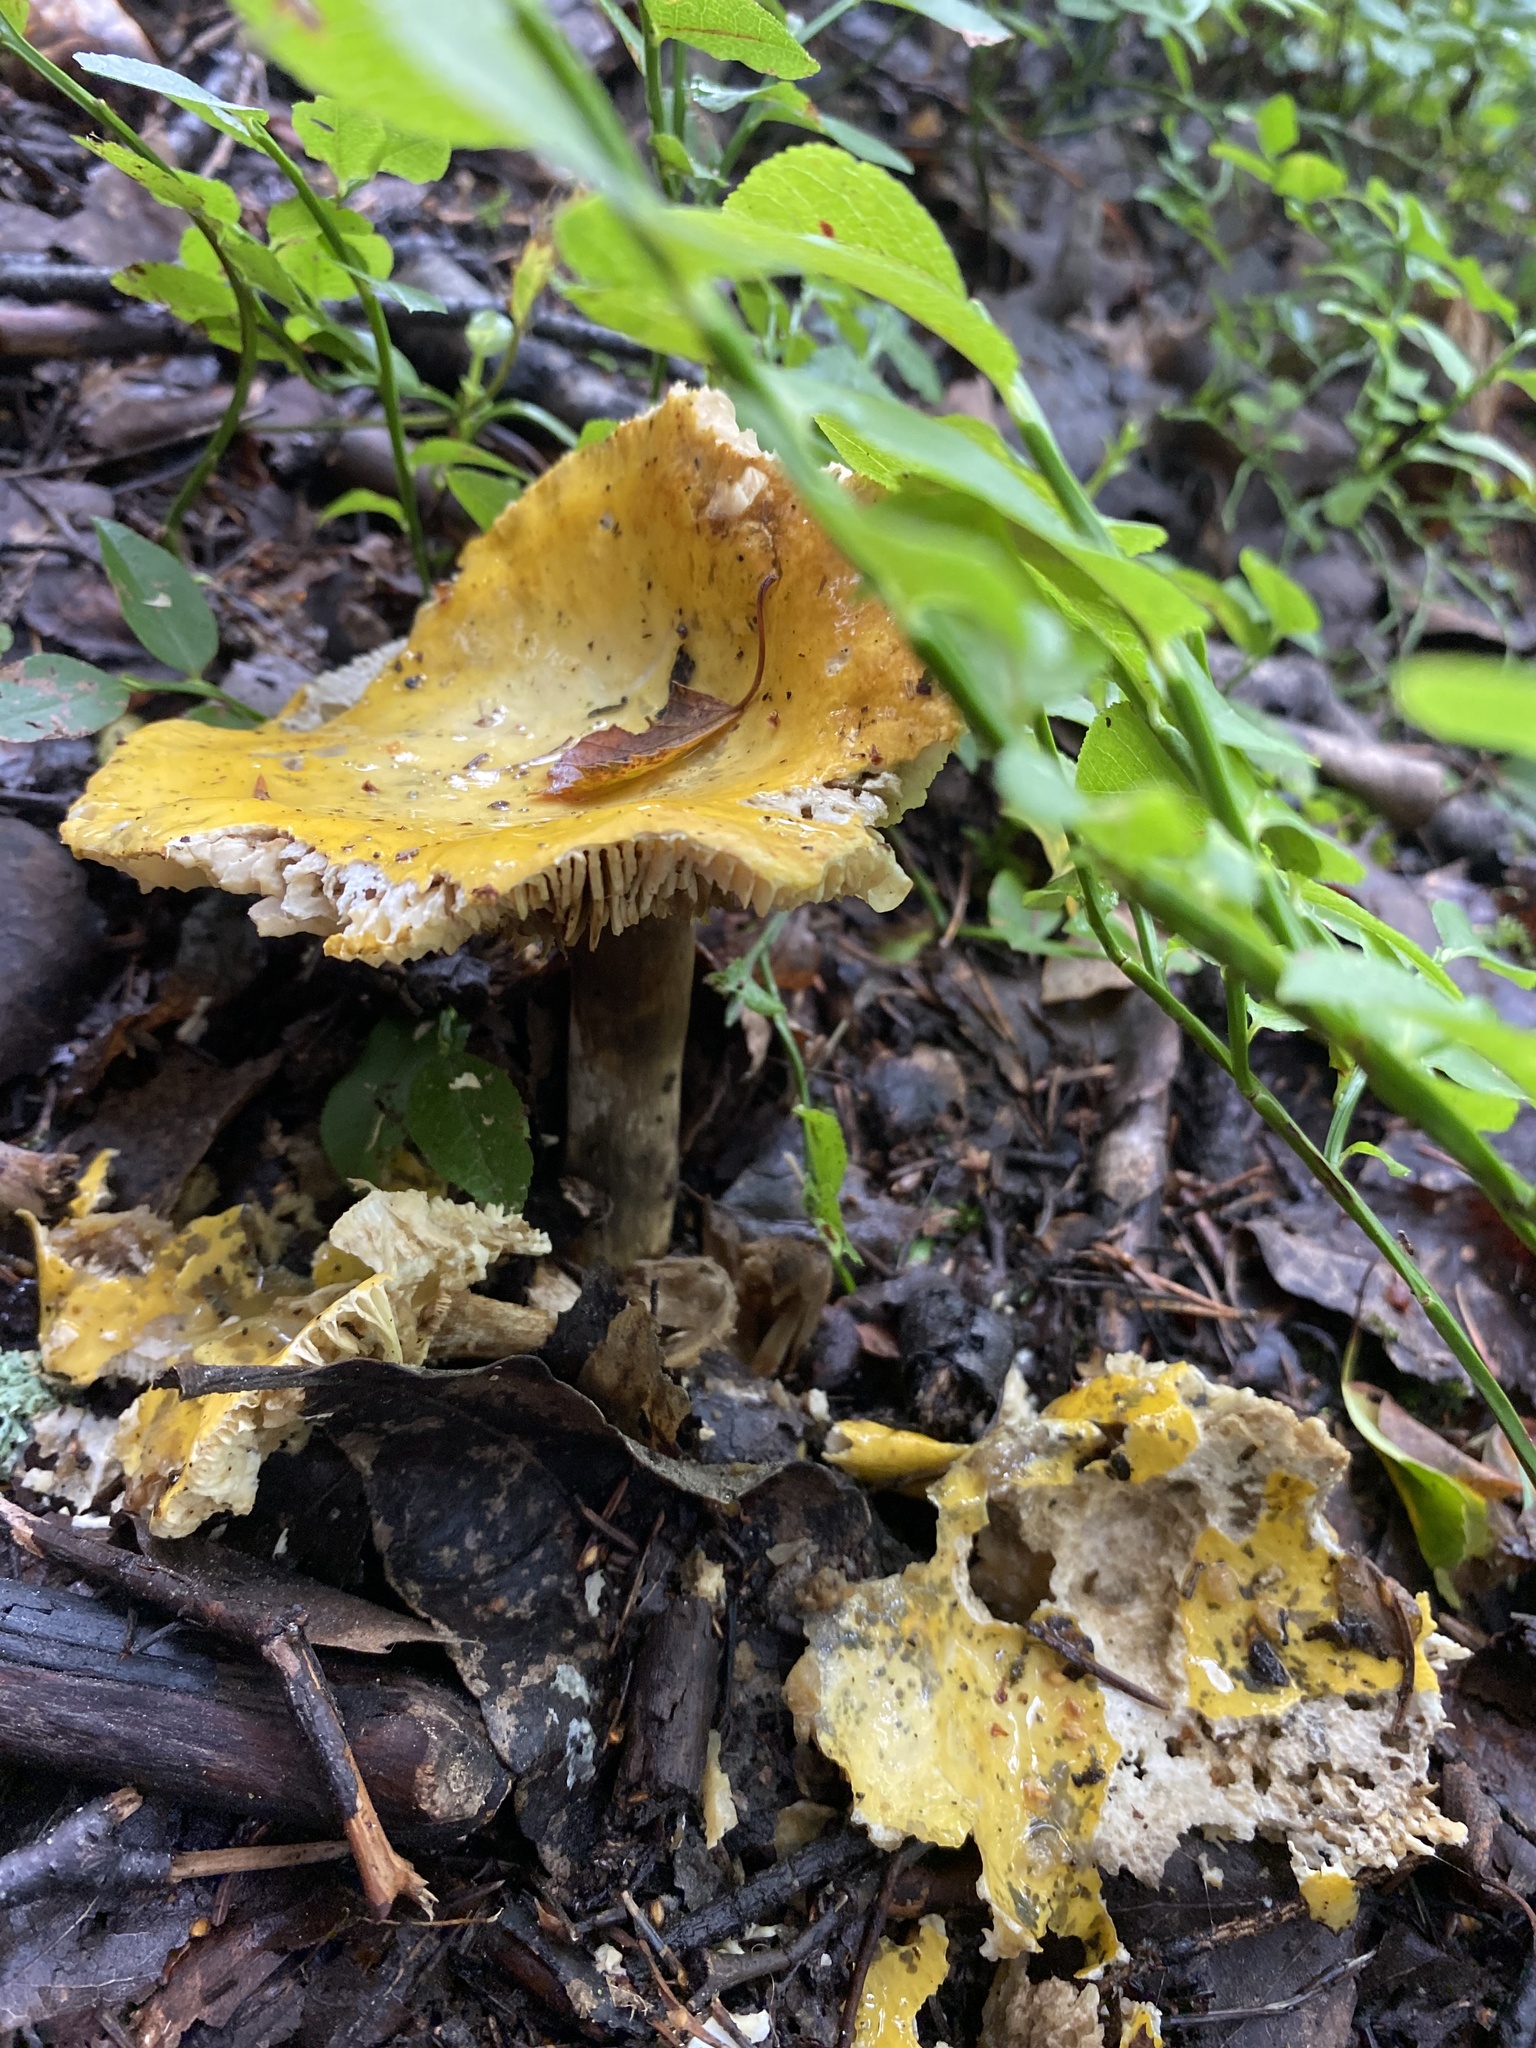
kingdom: Fungi
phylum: Basidiomycota
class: Agaricomycetes
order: Russulales
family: Russulaceae
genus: Russula
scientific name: Russula claroflava
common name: The yellow swamp brittlegill
